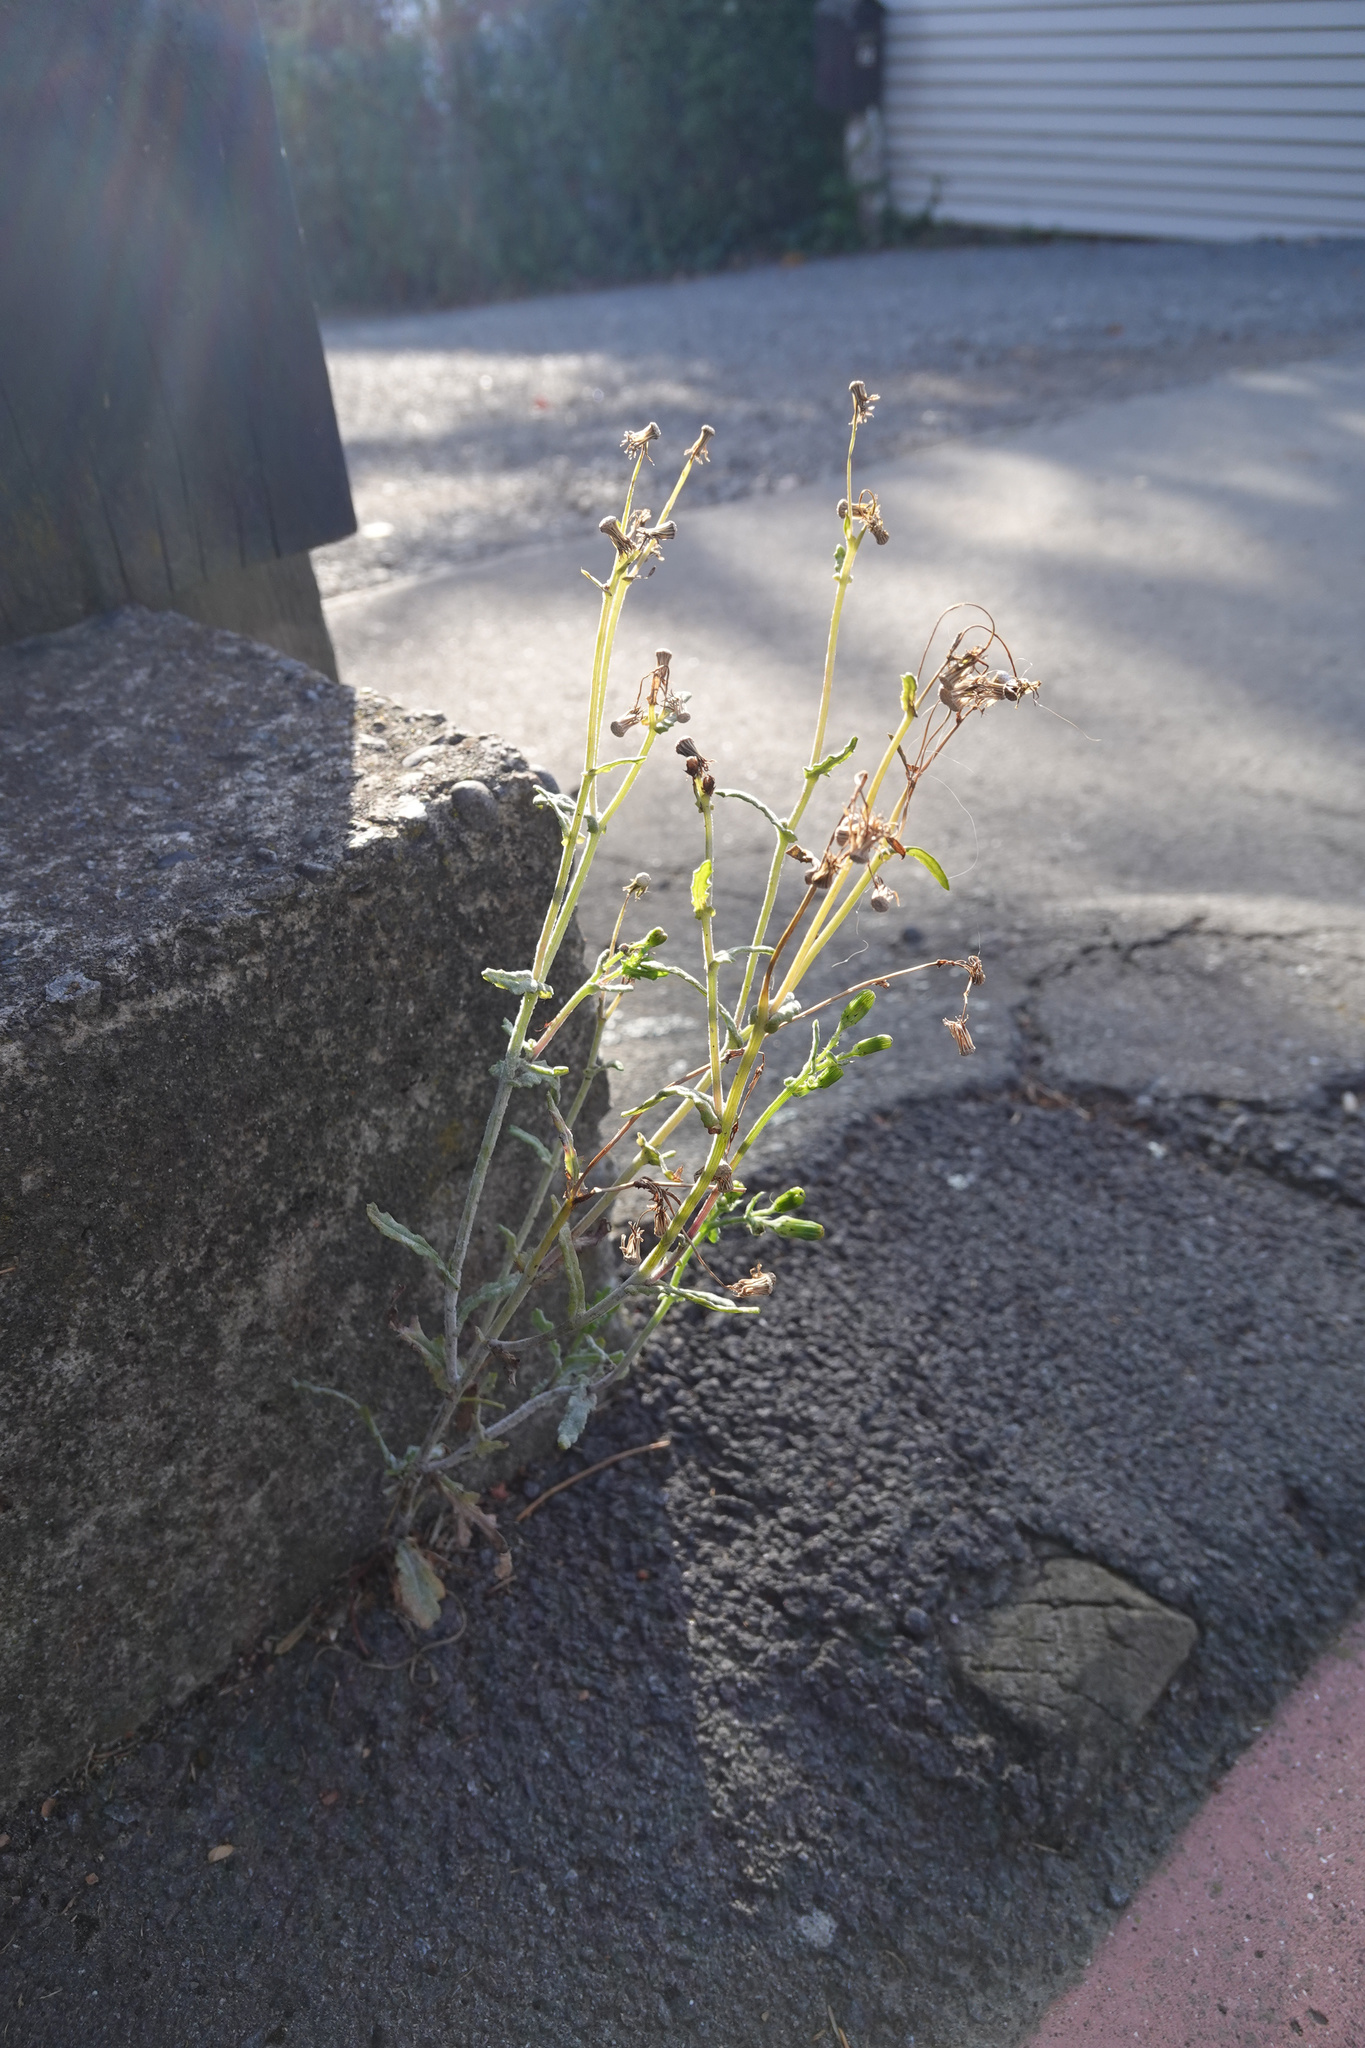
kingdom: Plantae
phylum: Tracheophyta
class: Magnoliopsida
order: Asterales
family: Asteraceae
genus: Senecio
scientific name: Senecio vulgaris
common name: Old-man-in-the-spring
